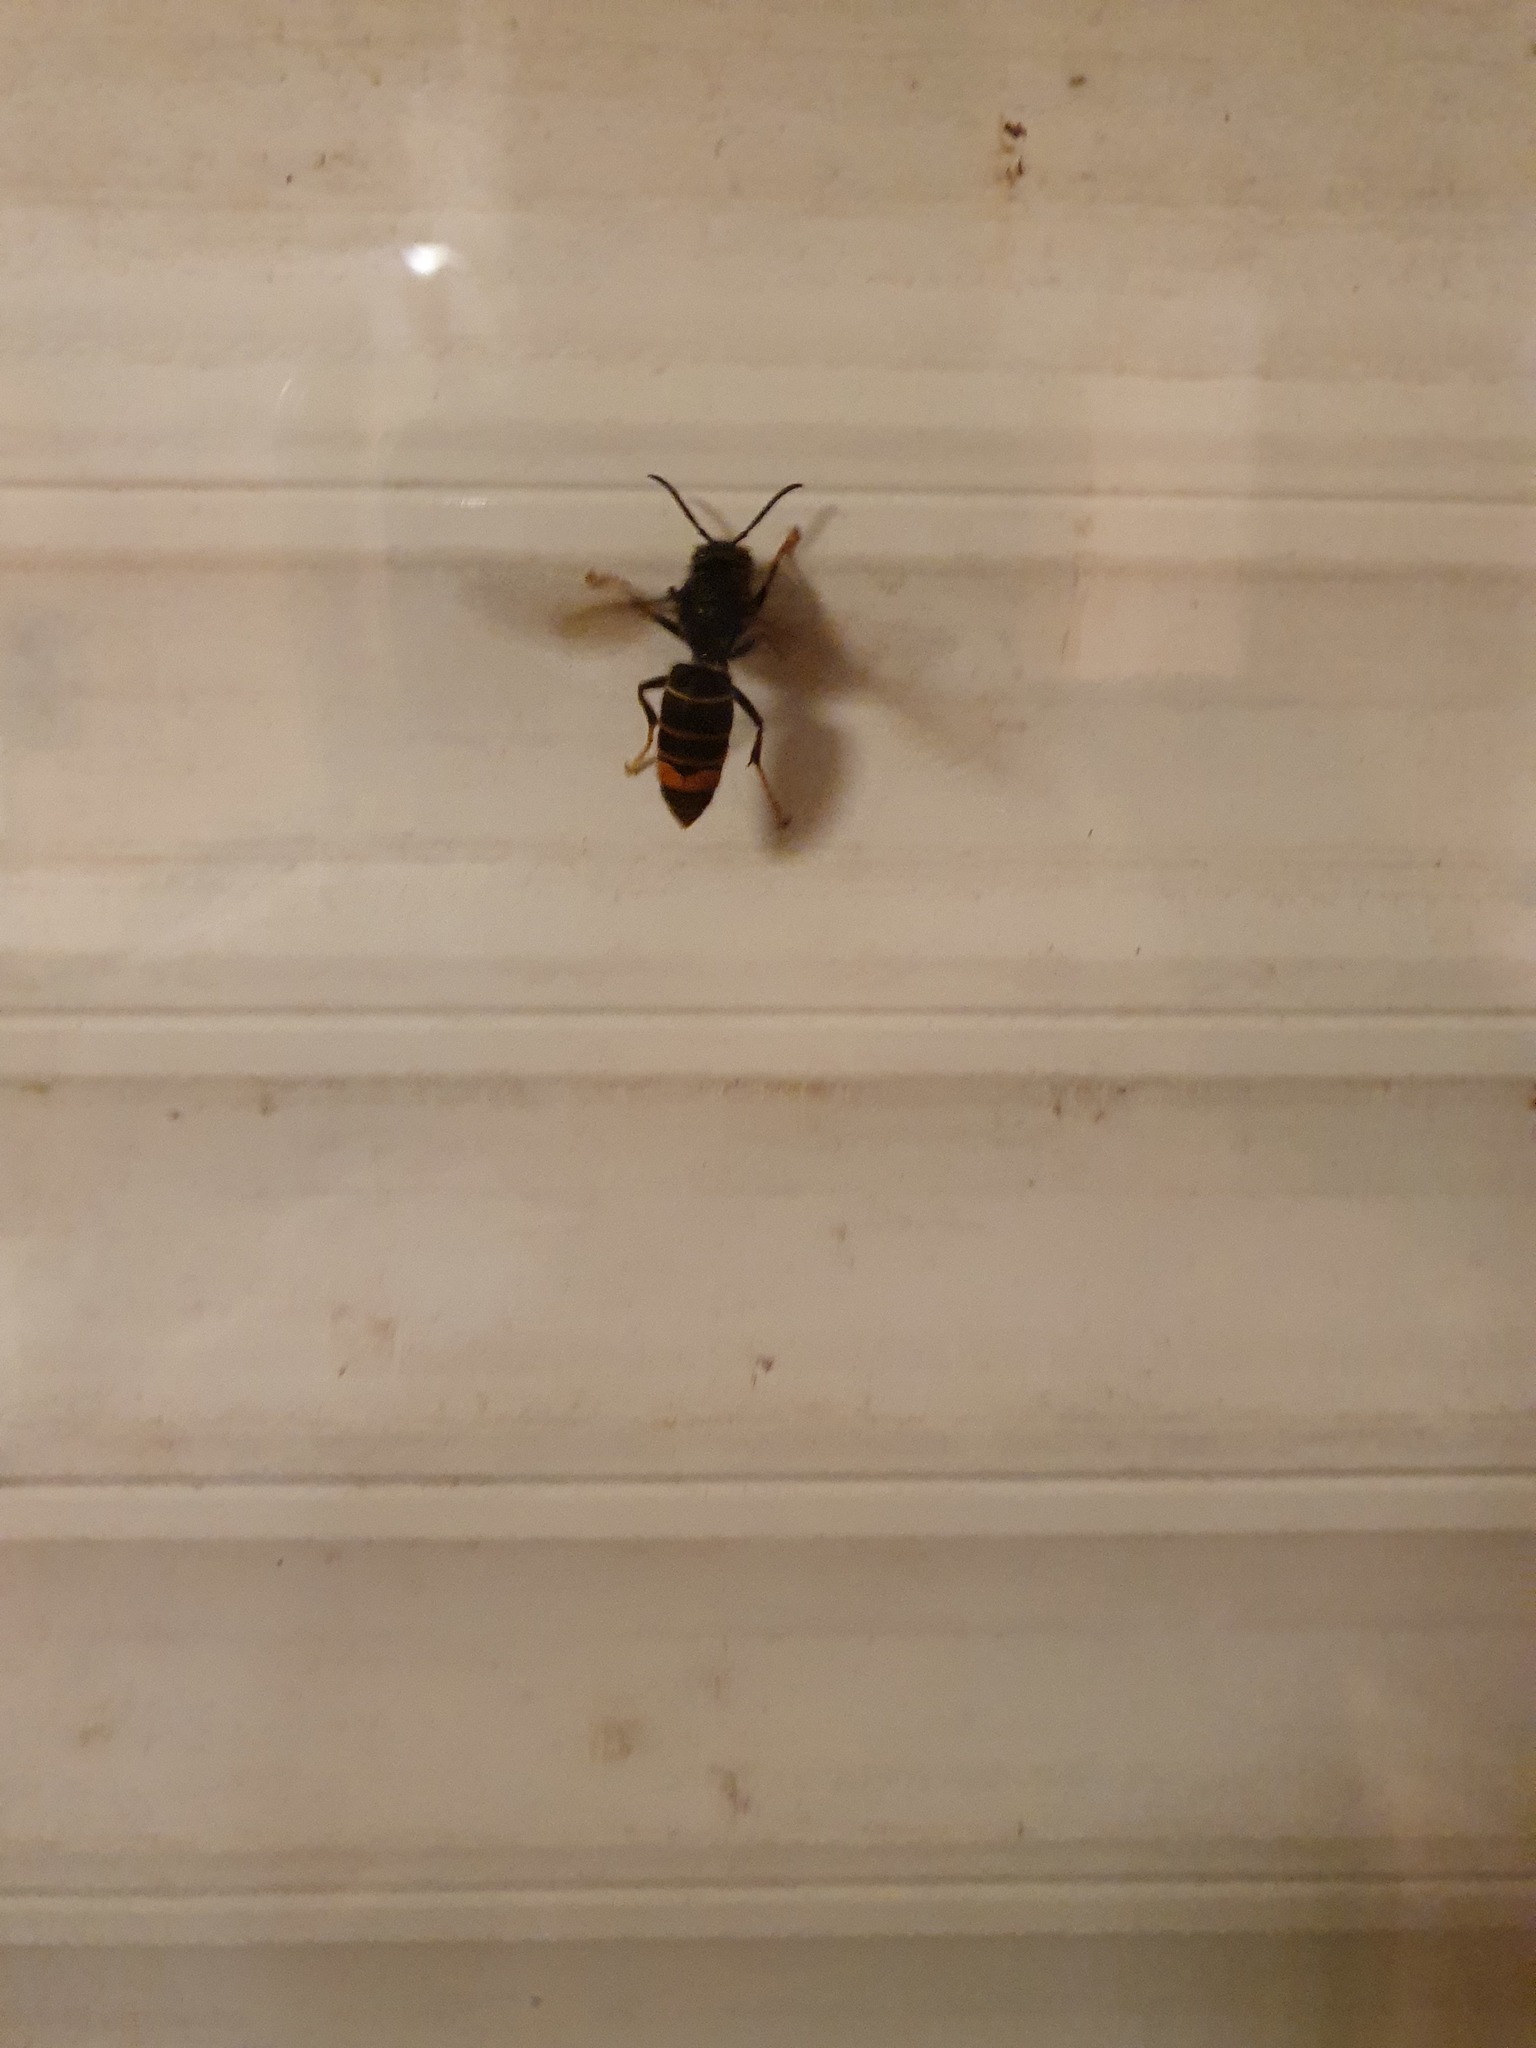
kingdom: Animalia
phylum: Arthropoda
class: Insecta
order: Hymenoptera
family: Vespidae
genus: Vespa
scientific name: Vespa velutina
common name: Asian hornet
